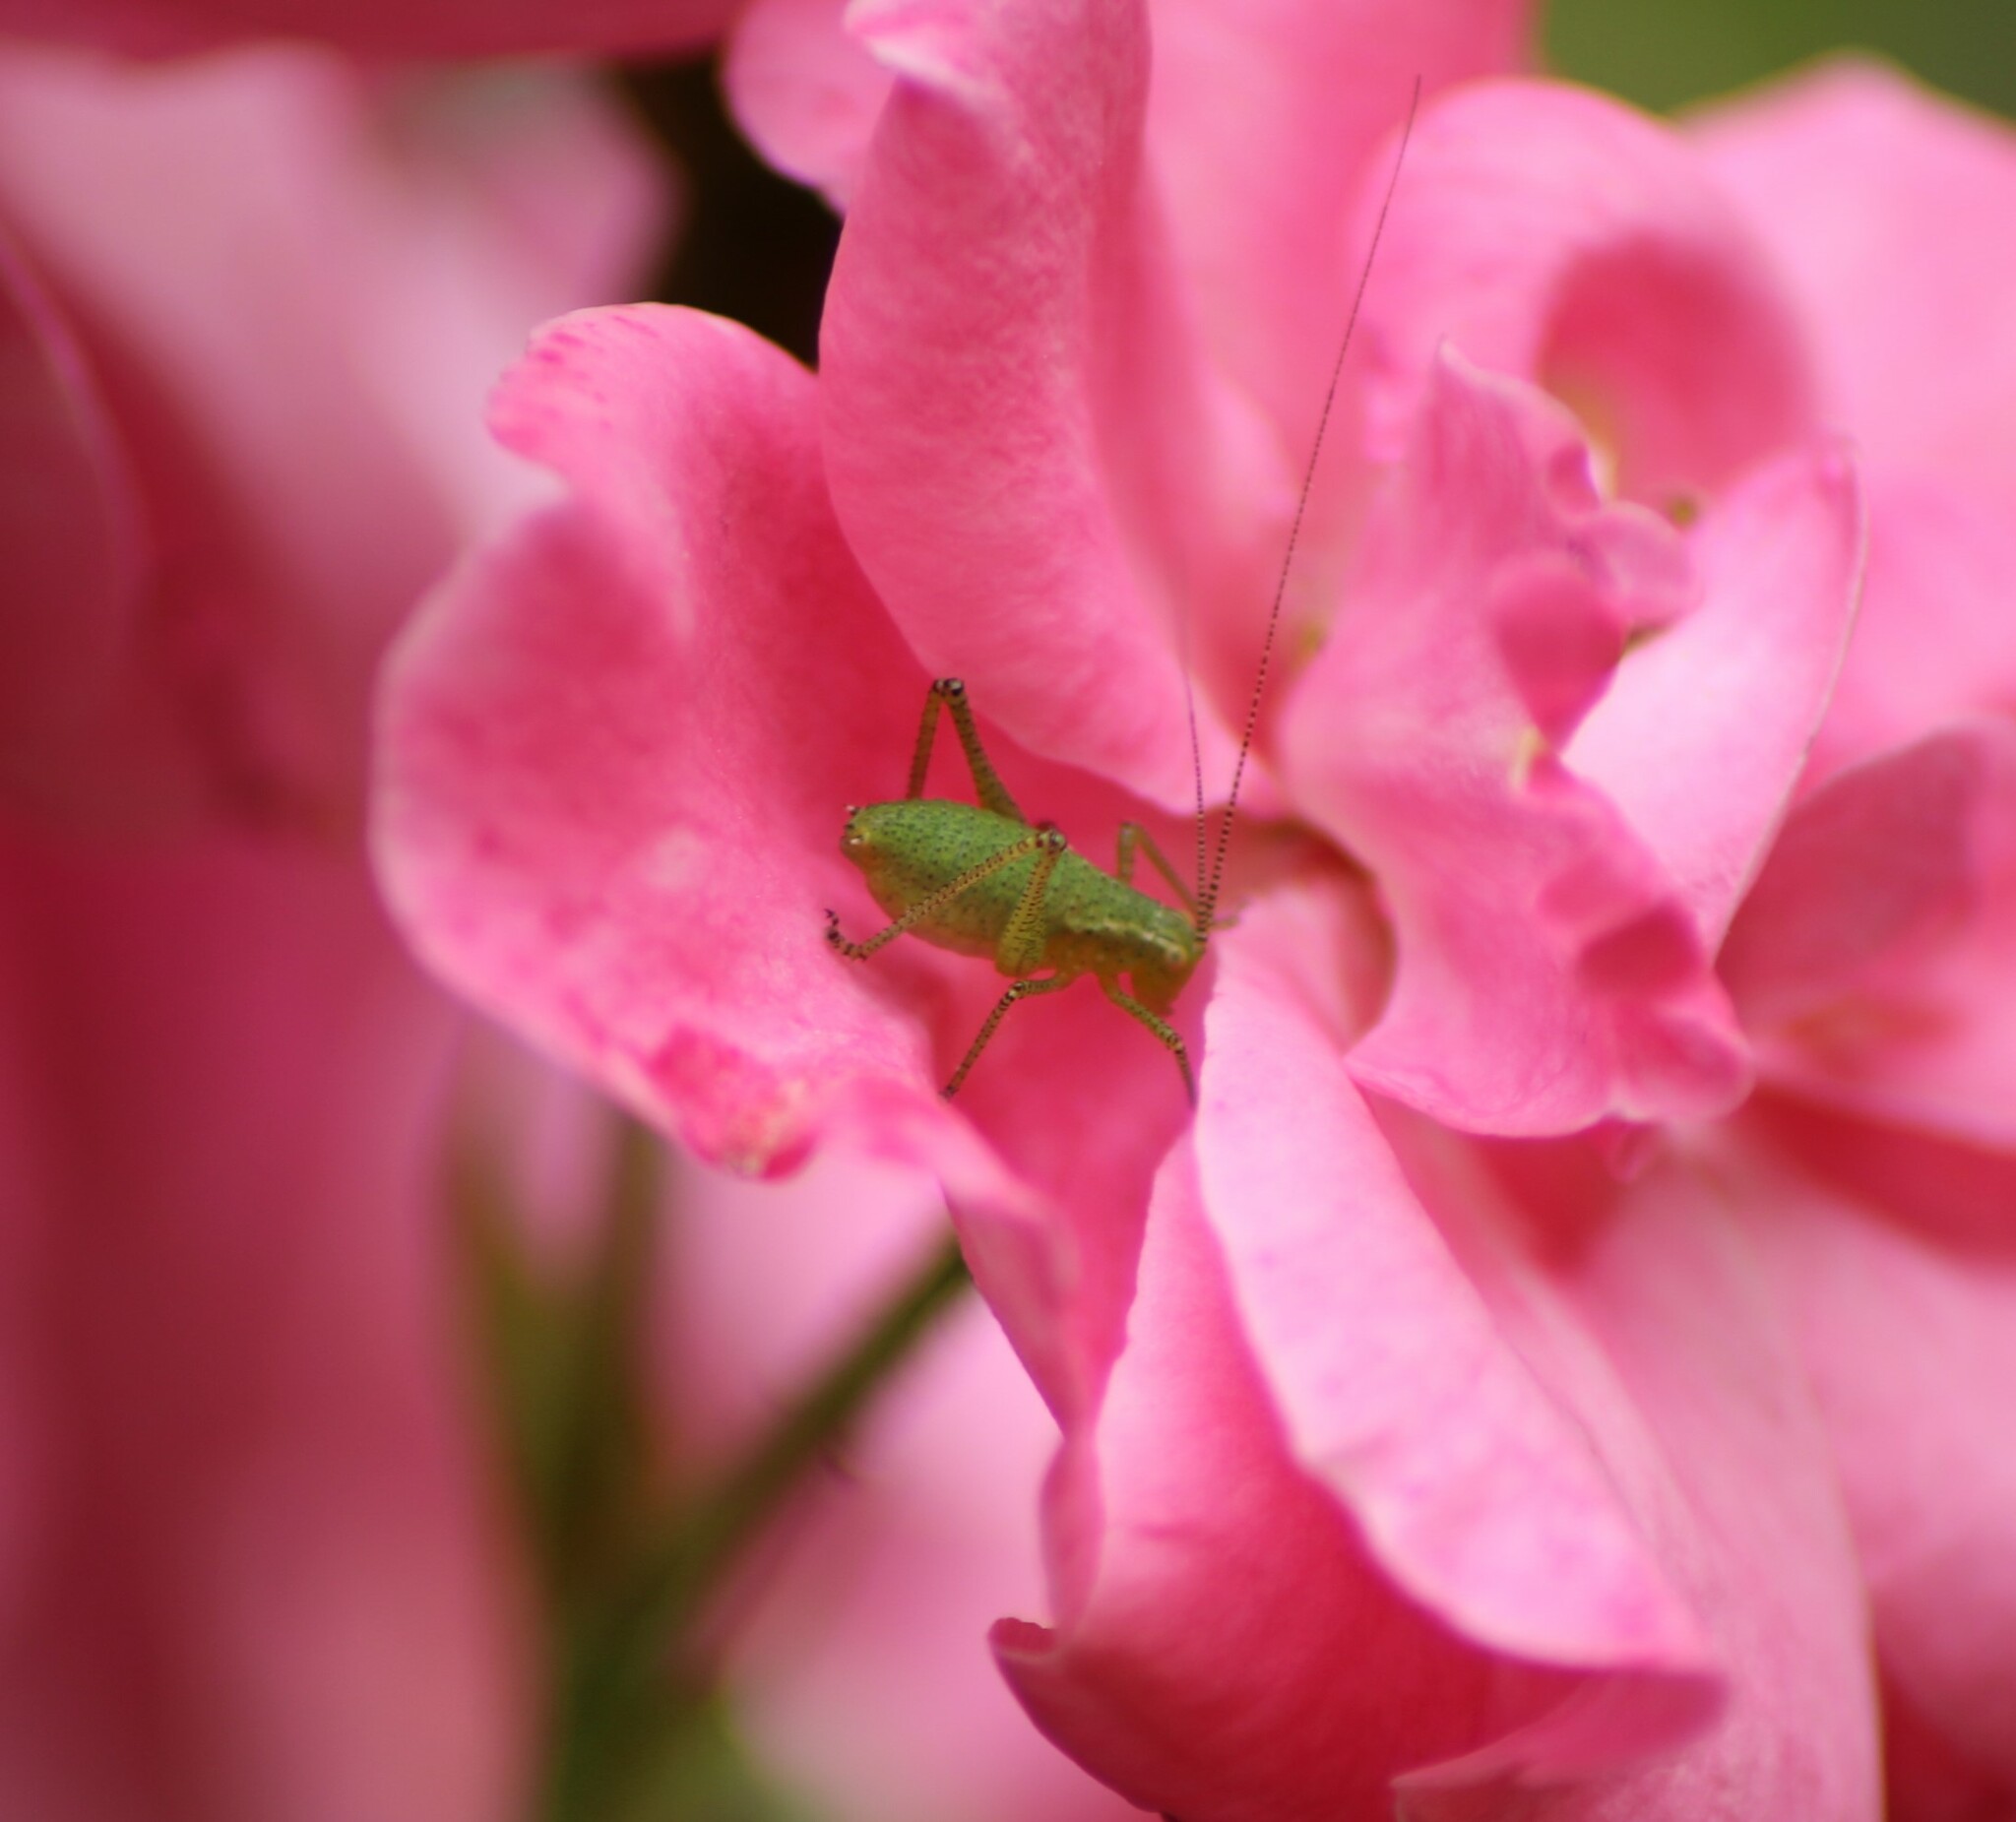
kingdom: Animalia
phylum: Arthropoda
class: Insecta
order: Orthoptera
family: Tettigoniidae
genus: Leptophyes
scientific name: Leptophyes punctatissima
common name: Speckled bush-cricket
